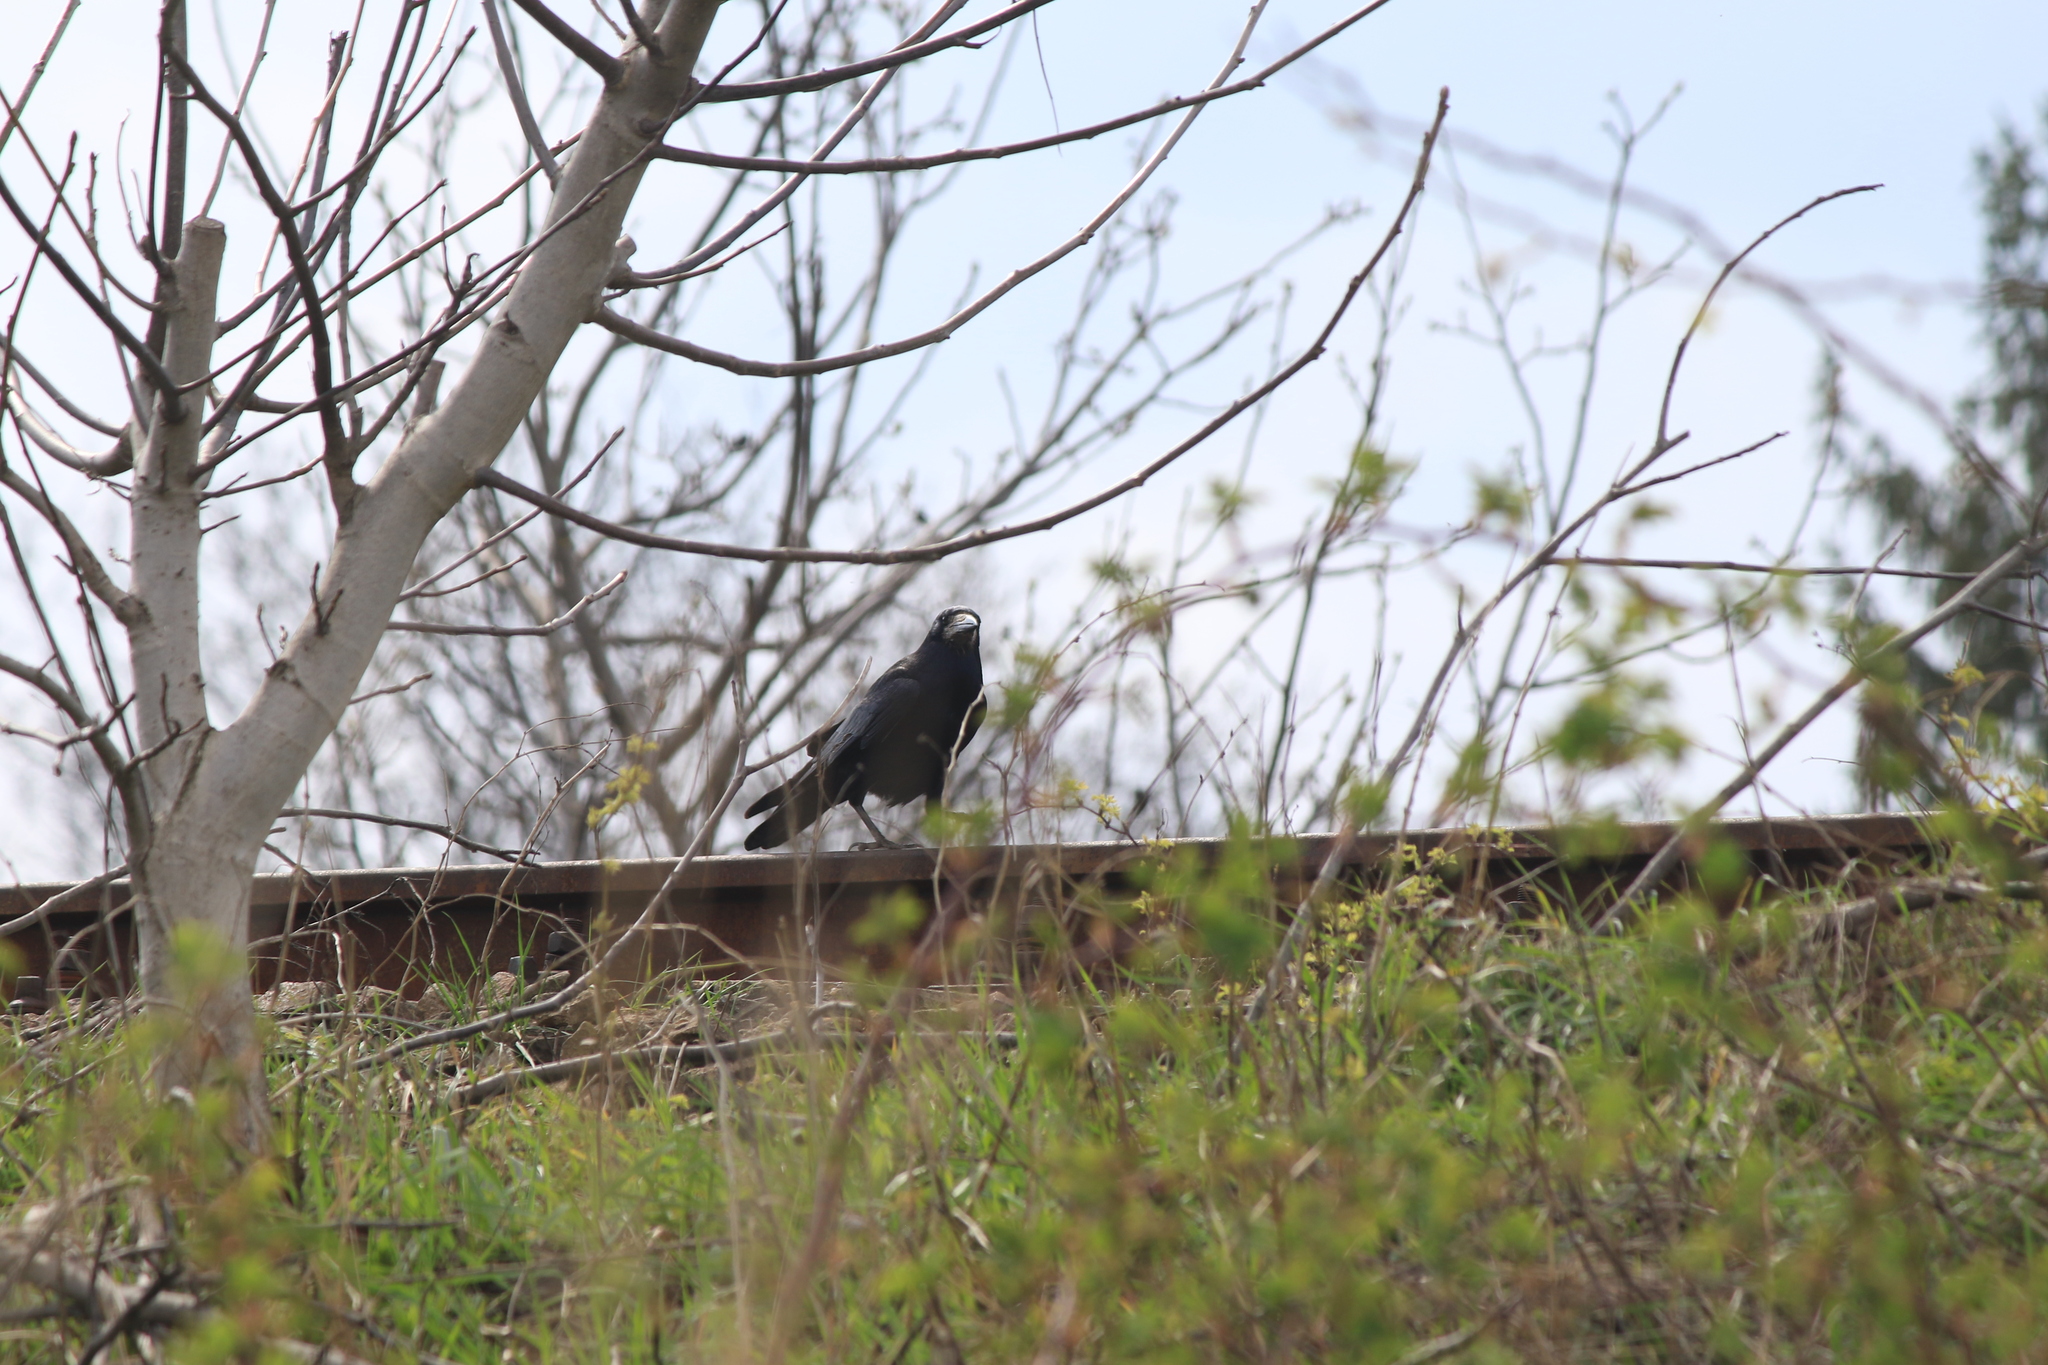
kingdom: Animalia
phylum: Chordata
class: Aves
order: Passeriformes
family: Corvidae
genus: Corvus
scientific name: Corvus frugilegus
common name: Rook
